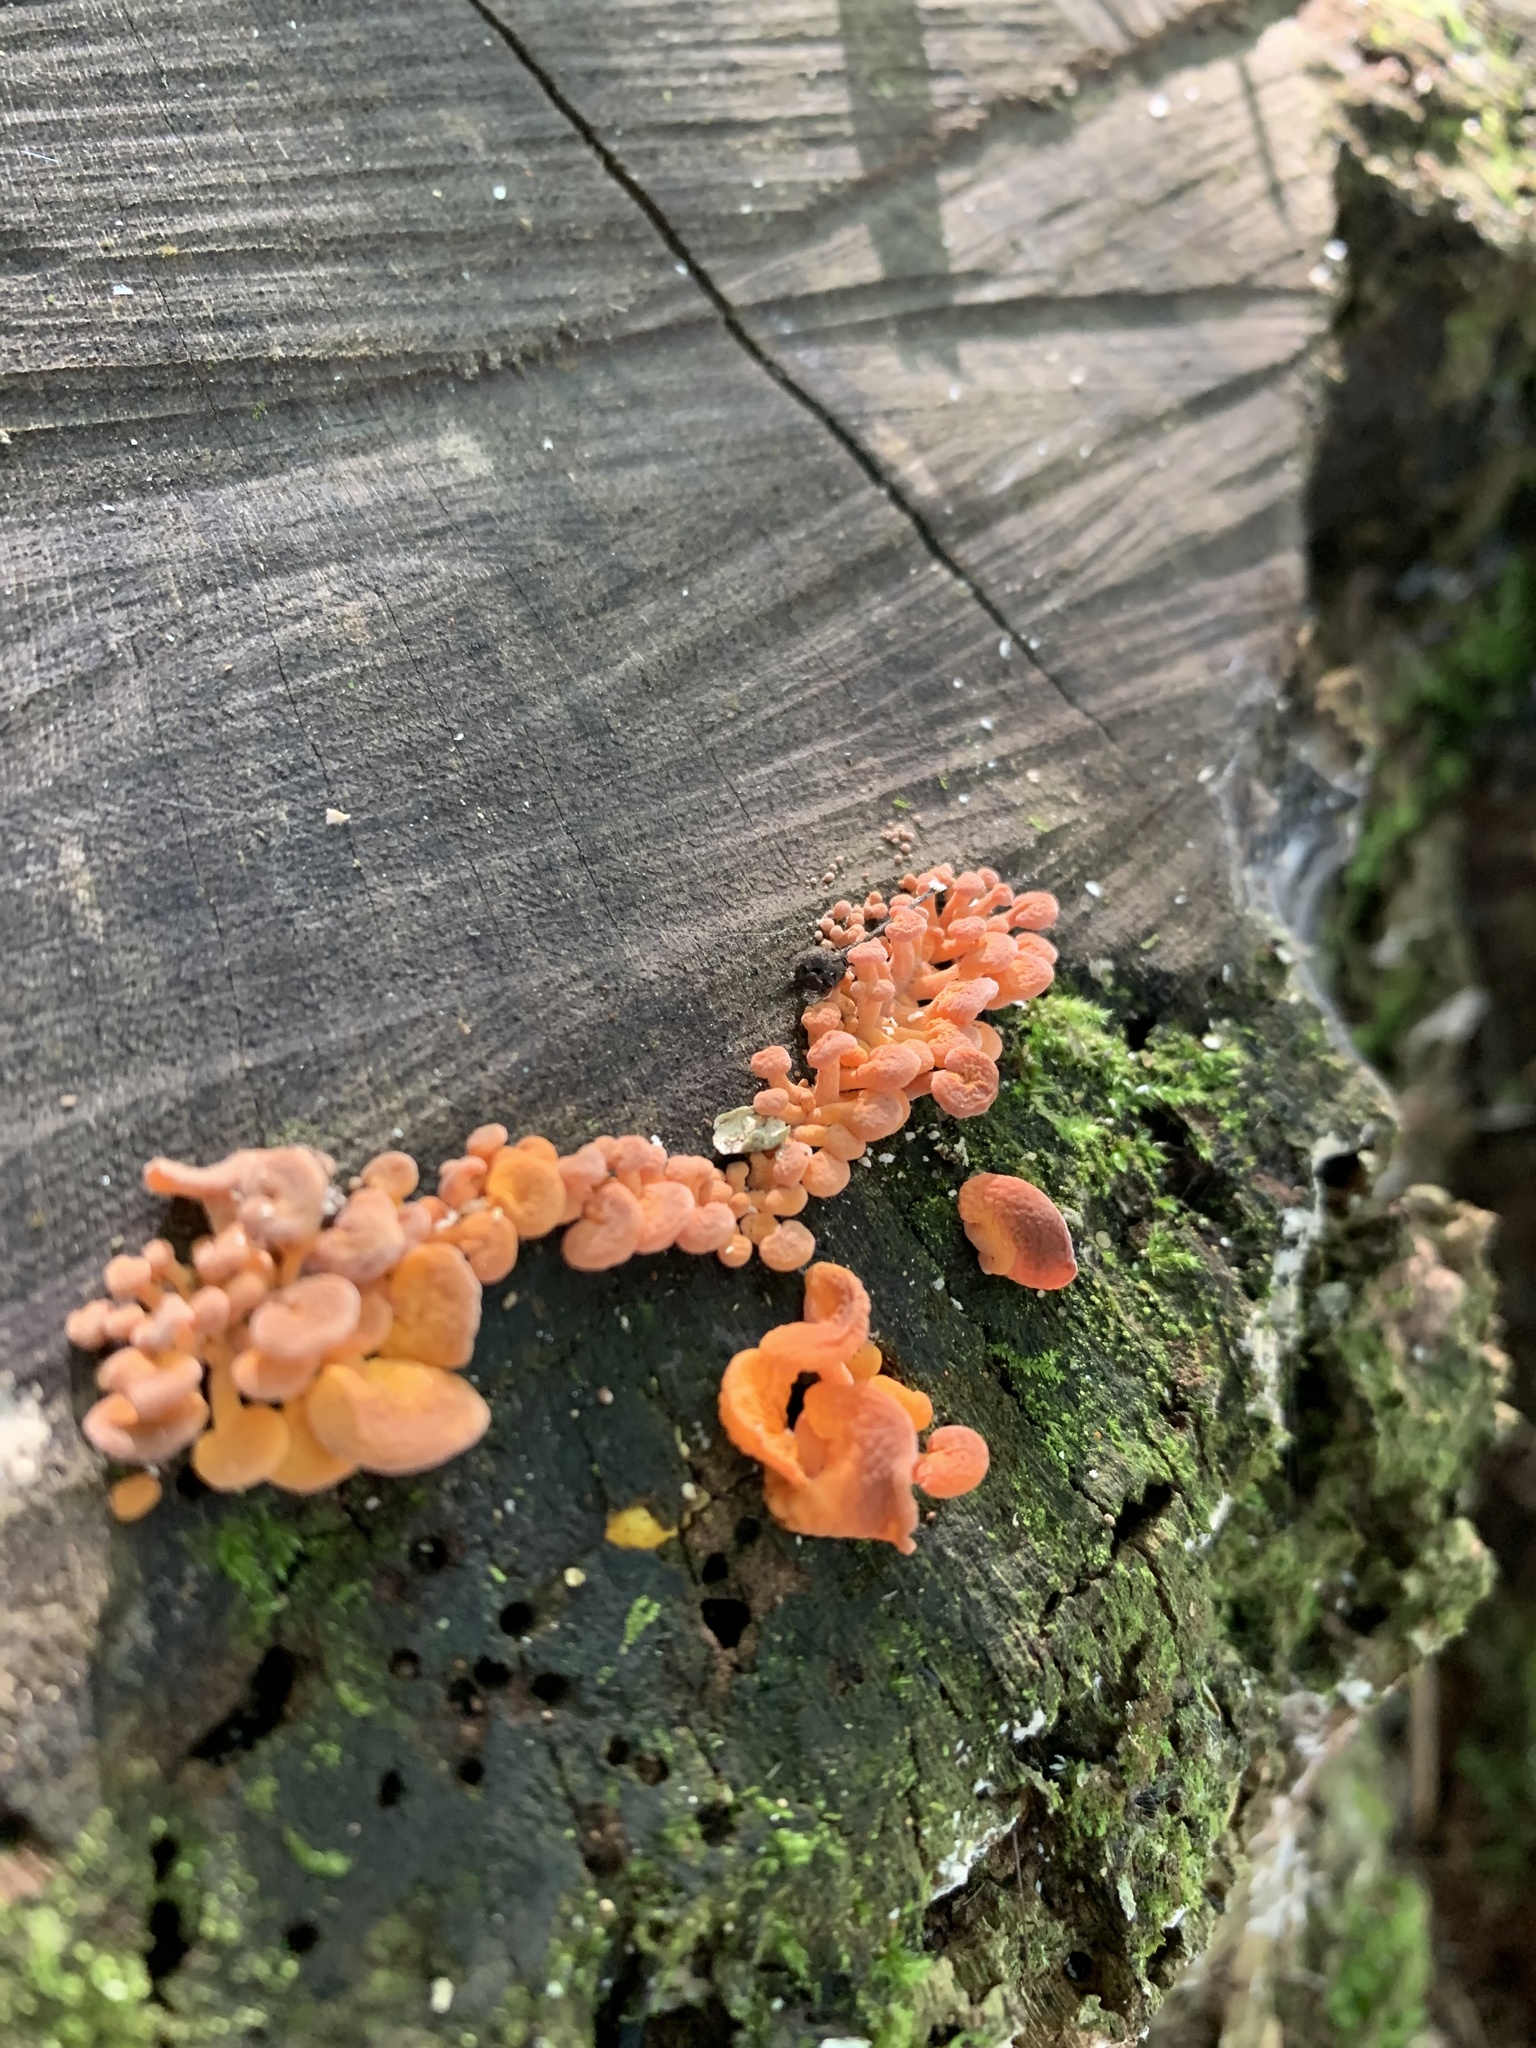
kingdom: Fungi
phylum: Basidiomycota
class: Agaricomycetes
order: Agaricales
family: Mycenaceae
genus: Favolaschia
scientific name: Favolaschia claudopus
